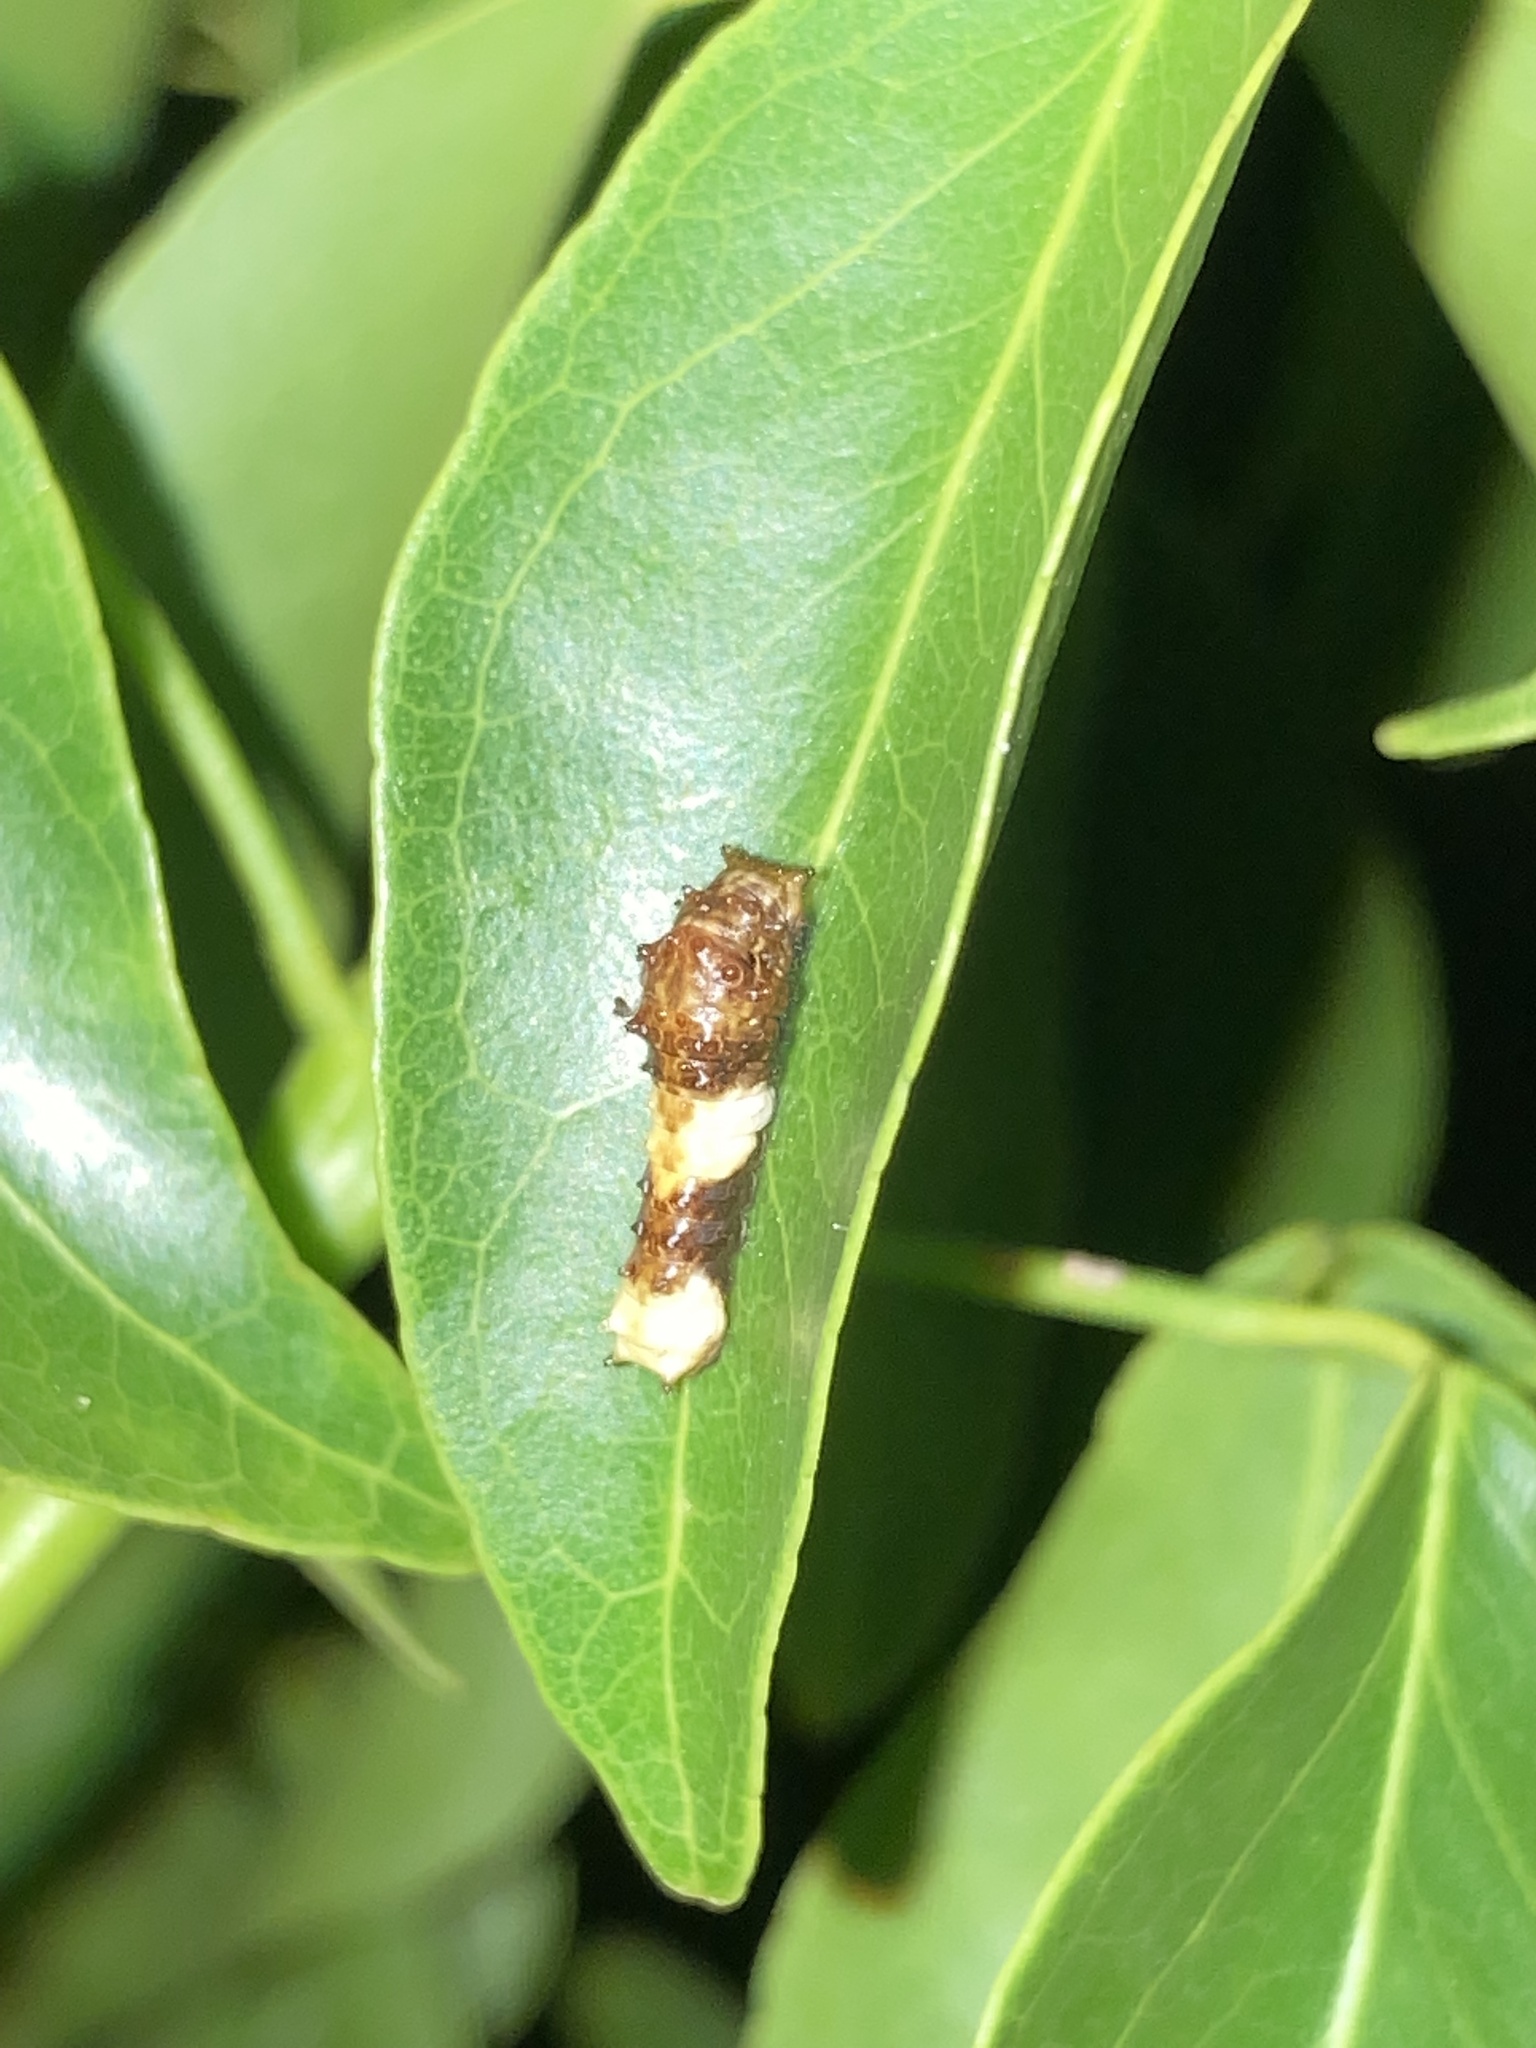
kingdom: Animalia
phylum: Arthropoda
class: Insecta
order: Lepidoptera
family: Papilionidae
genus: Papilio
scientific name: Papilio cresphontes
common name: Giant swallowtail
